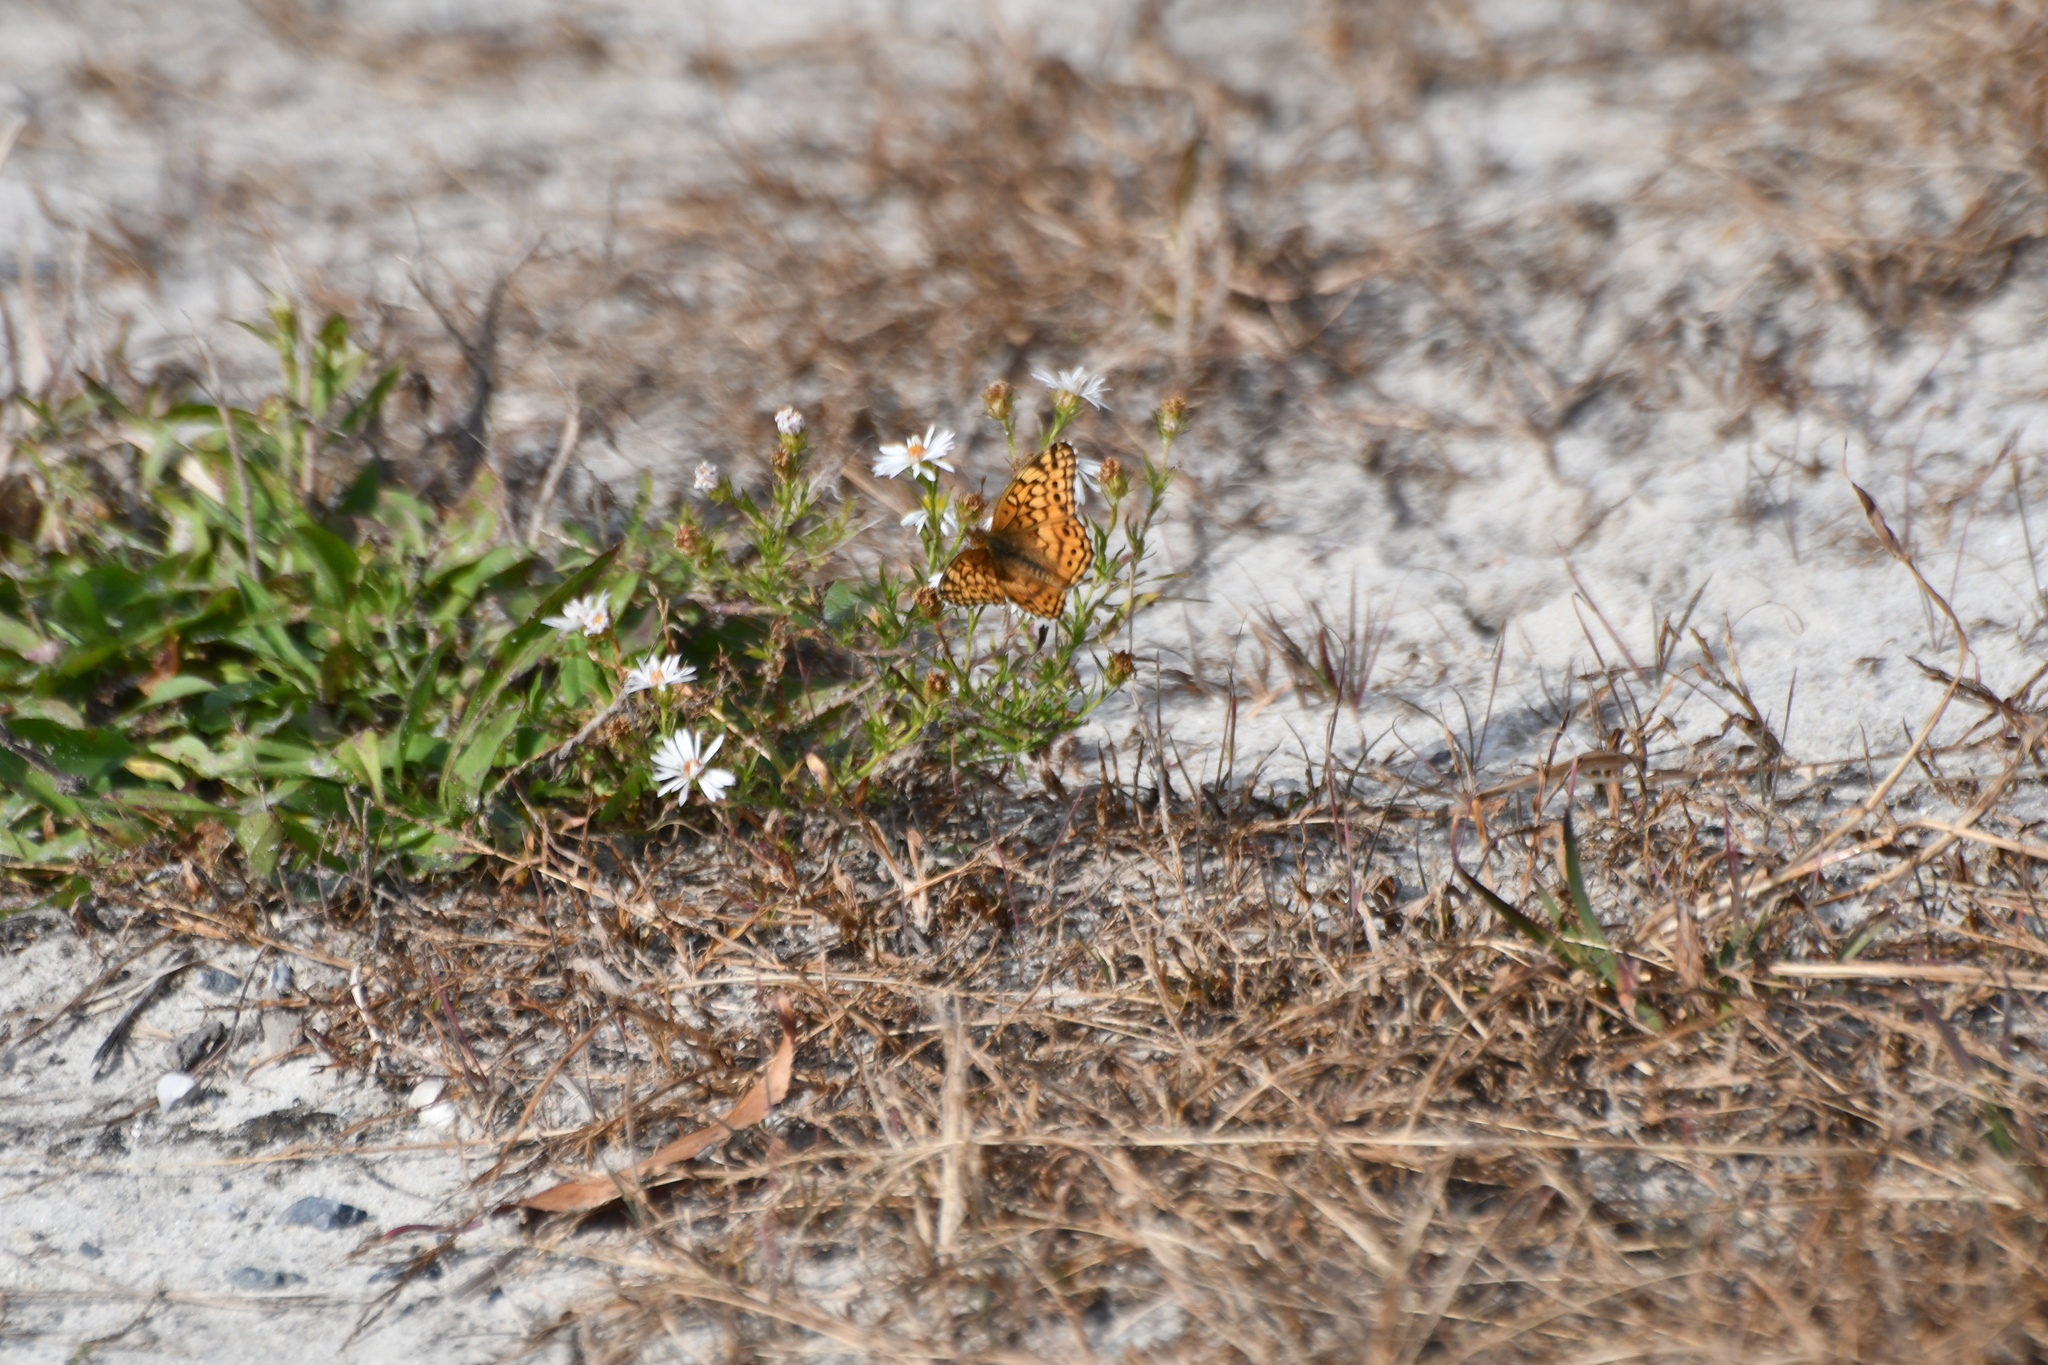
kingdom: Animalia
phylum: Arthropoda
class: Insecta
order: Lepidoptera
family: Nymphalidae
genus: Euptoieta
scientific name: Euptoieta claudia
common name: Variegated fritillary
